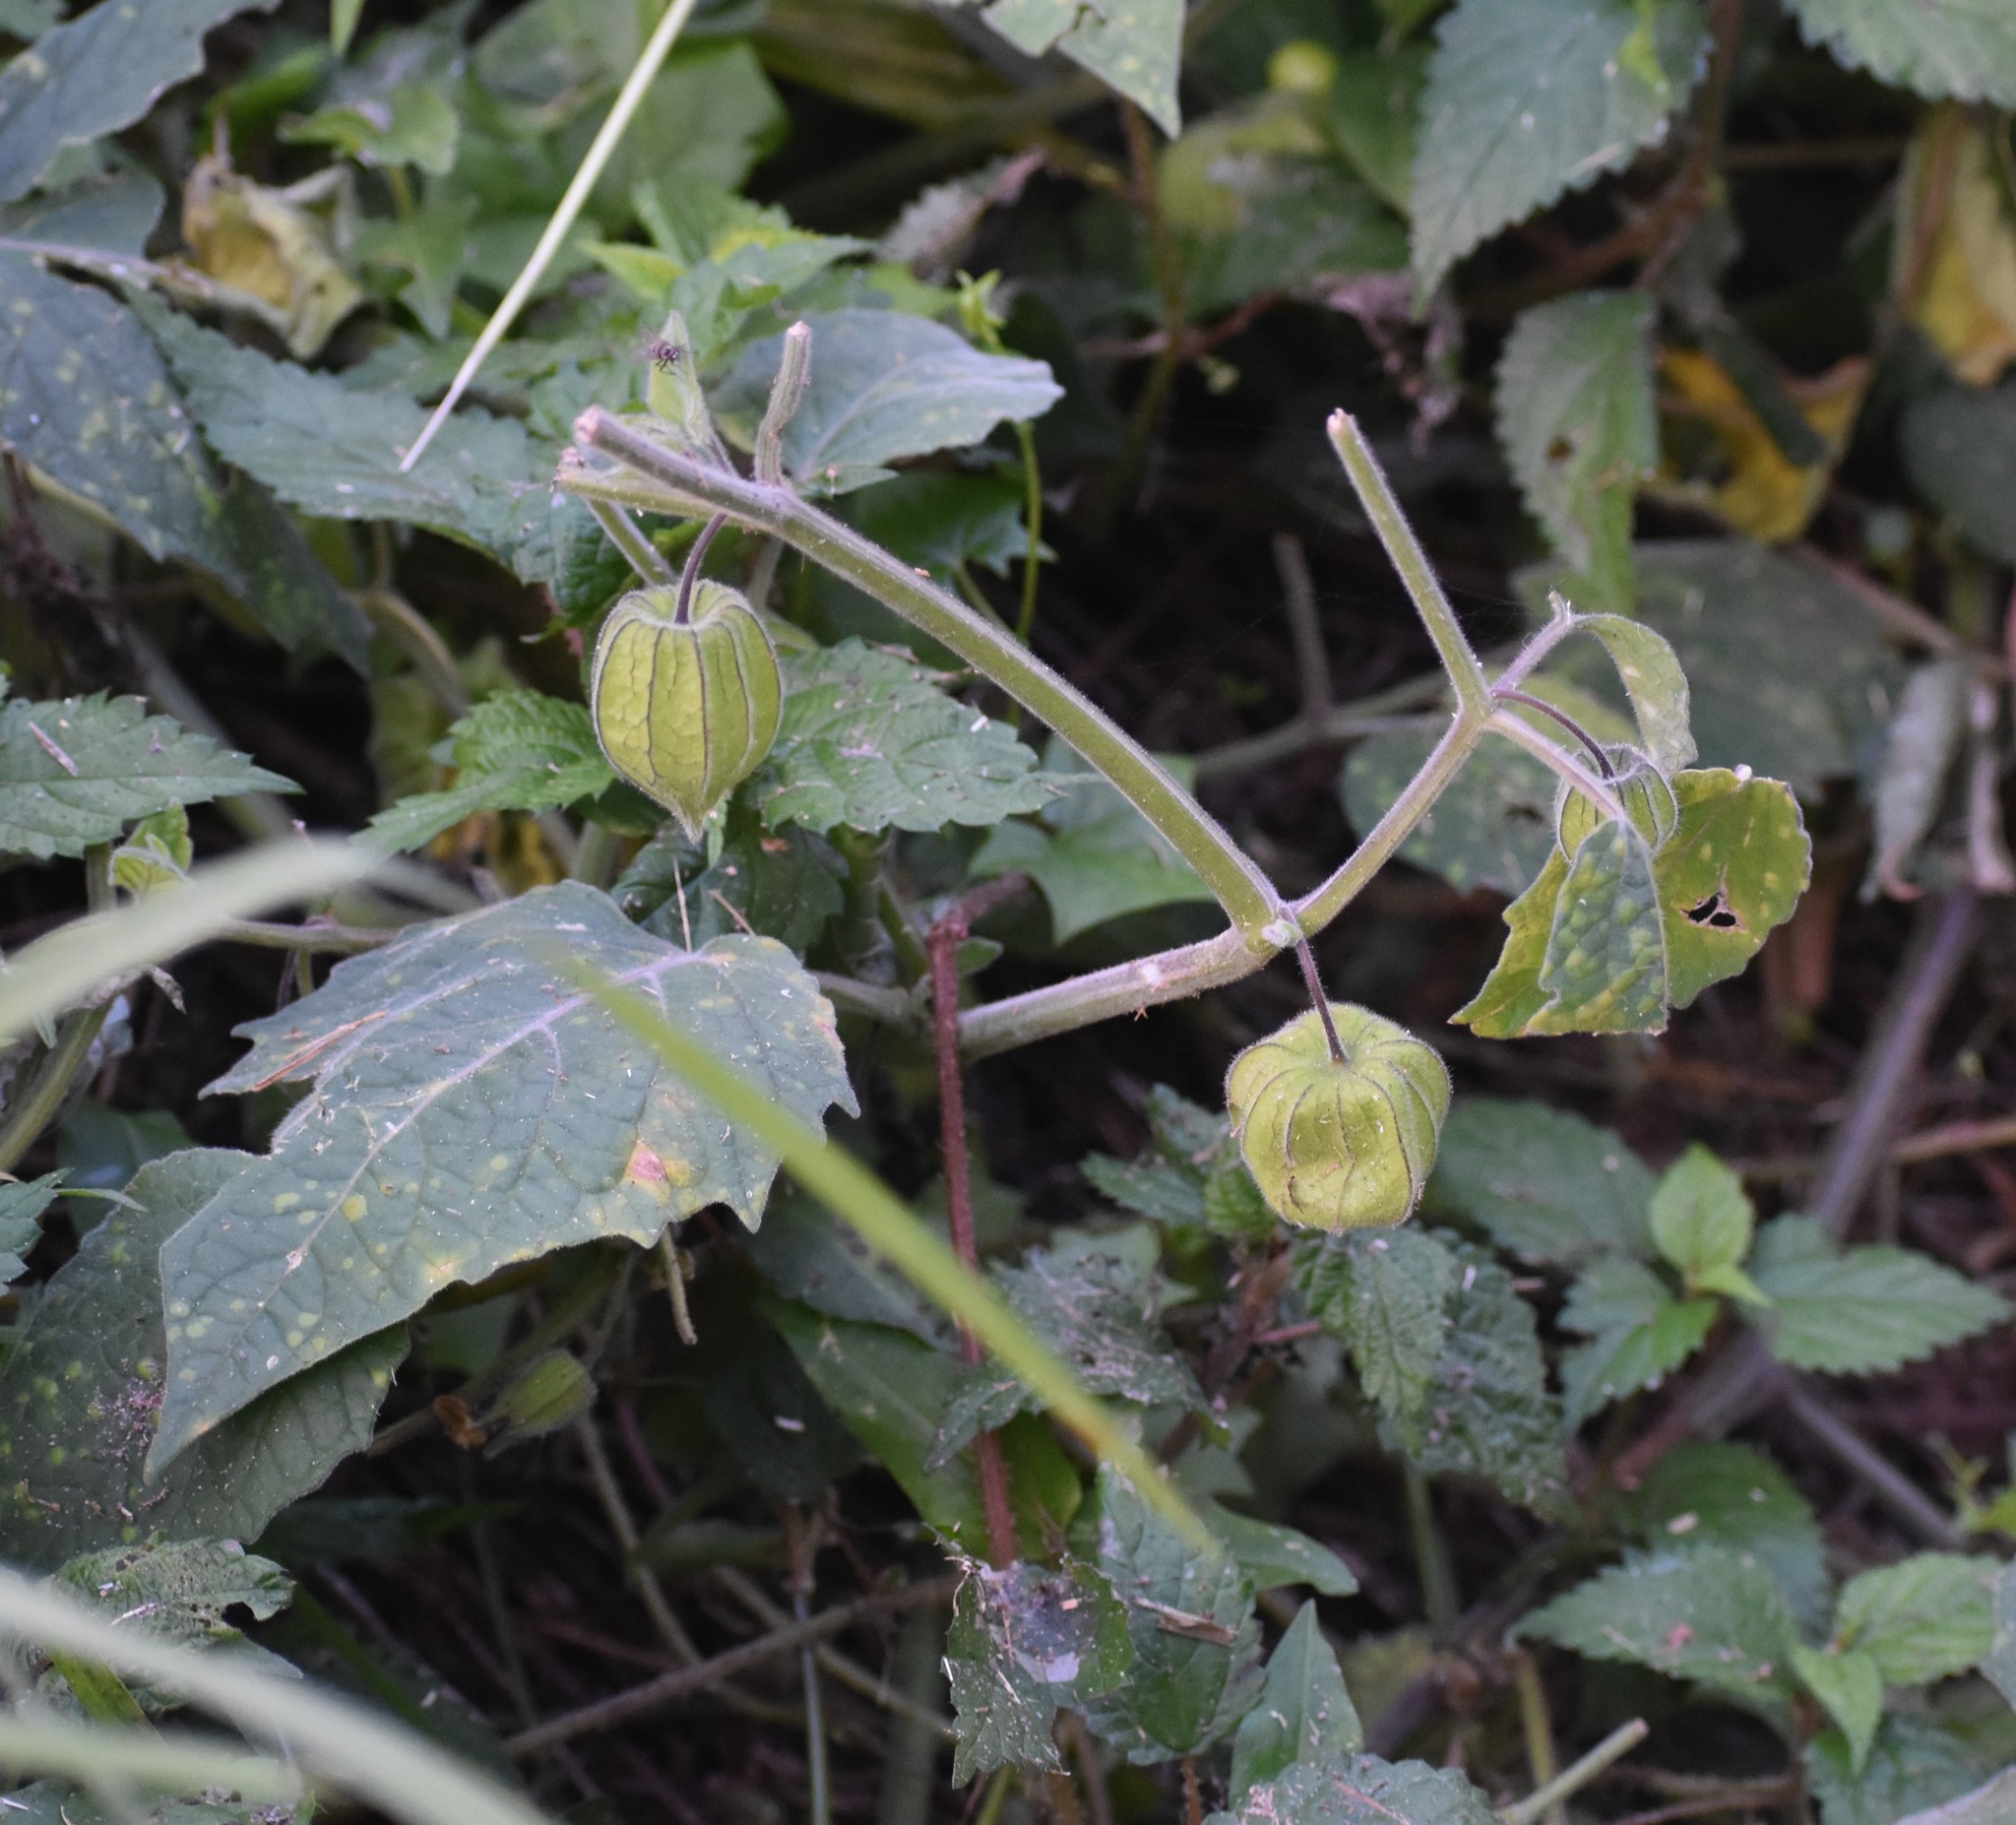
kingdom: Plantae
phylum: Tracheophyta
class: Magnoliopsida
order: Solanales
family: Solanaceae
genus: Physalis
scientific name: Physalis peruviana
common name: Cape-gooseberry
